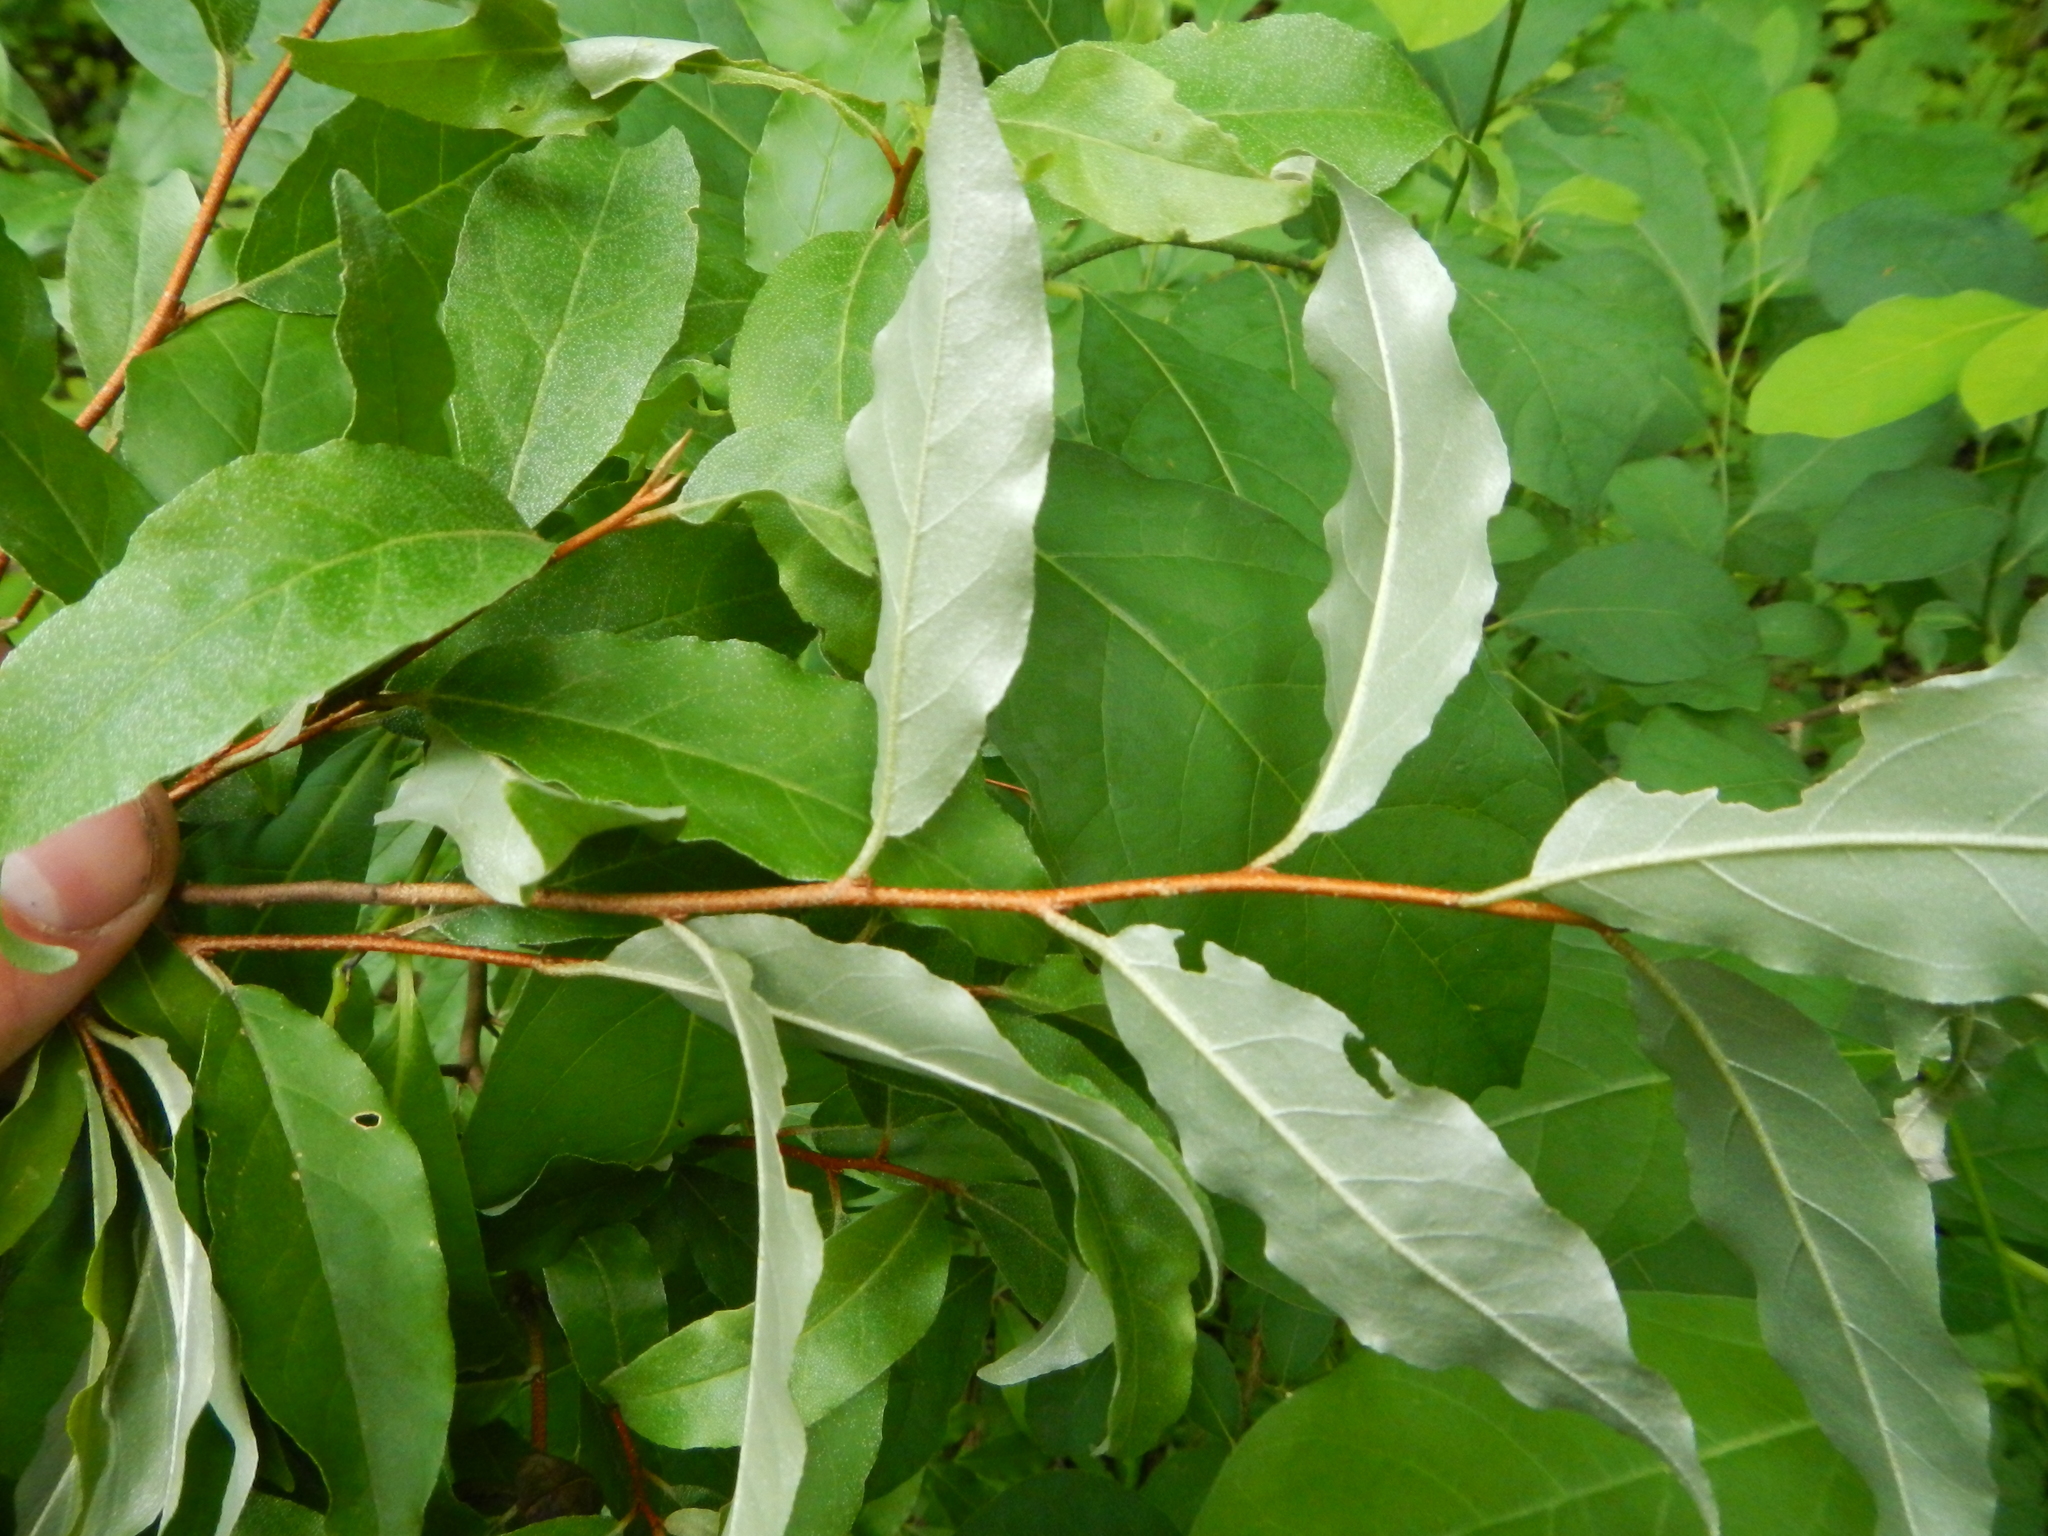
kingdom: Plantae
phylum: Tracheophyta
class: Magnoliopsida
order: Rosales
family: Elaeagnaceae
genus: Elaeagnus
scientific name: Elaeagnus umbellata
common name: Autumn olive
